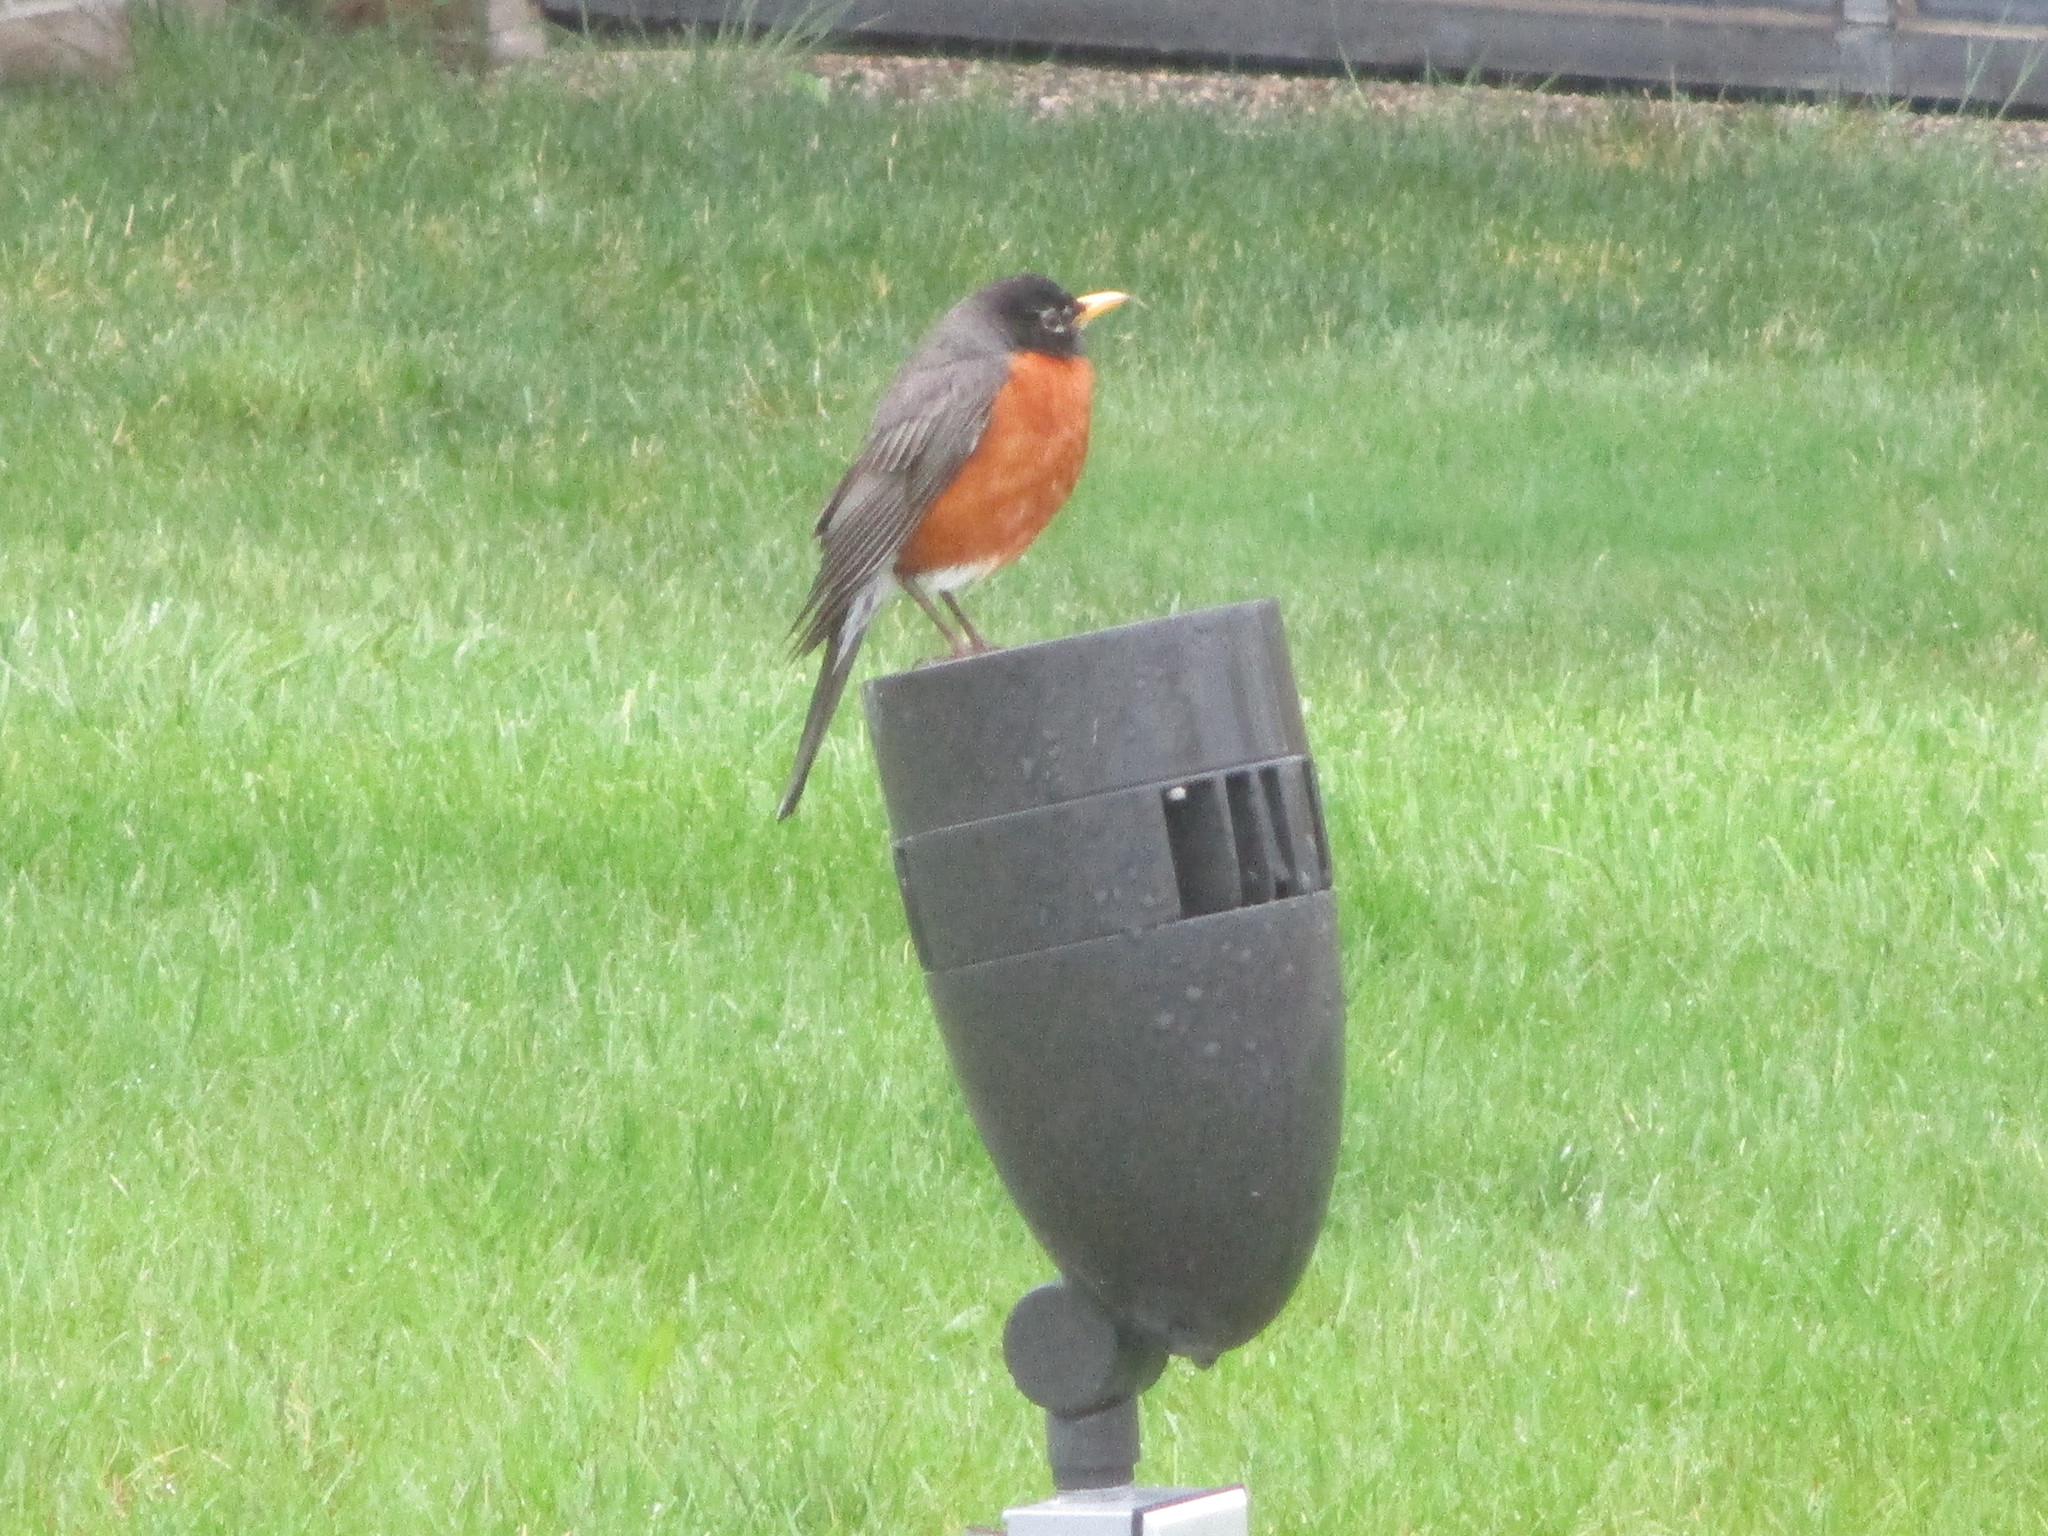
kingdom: Animalia
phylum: Chordata
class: Aves
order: Passeriformes
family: Turdidae
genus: Turdus
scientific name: Turdus migratorius
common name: American robin
